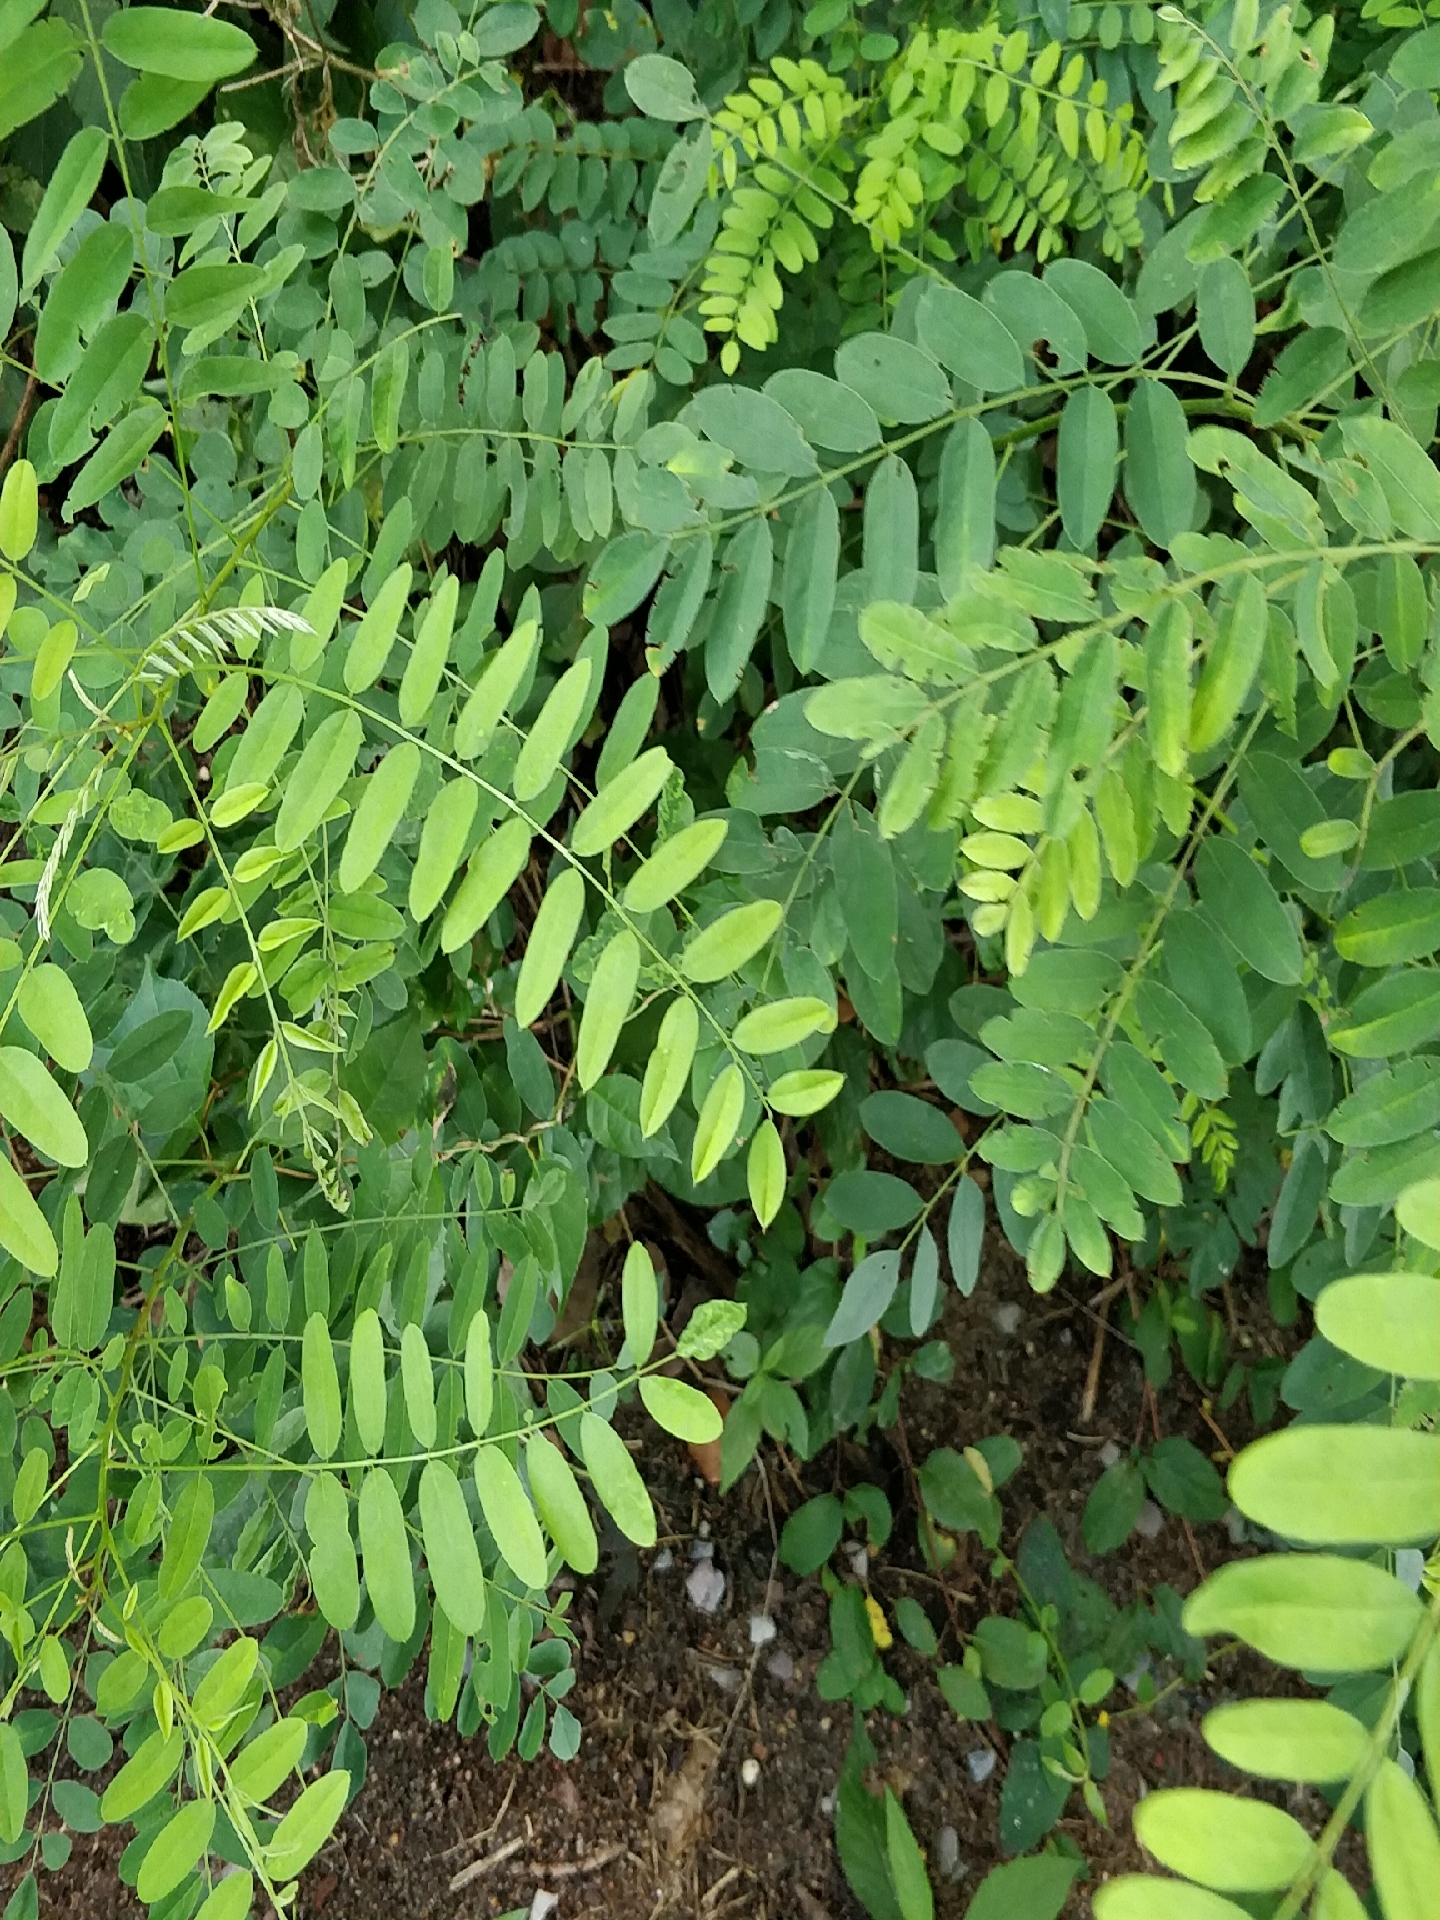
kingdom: Plantae
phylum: Tracheophyta
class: Magnoliopsida
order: Fabales
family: Fabaceae
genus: Robinia
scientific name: Robinia pseudoacacia
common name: Black locust
